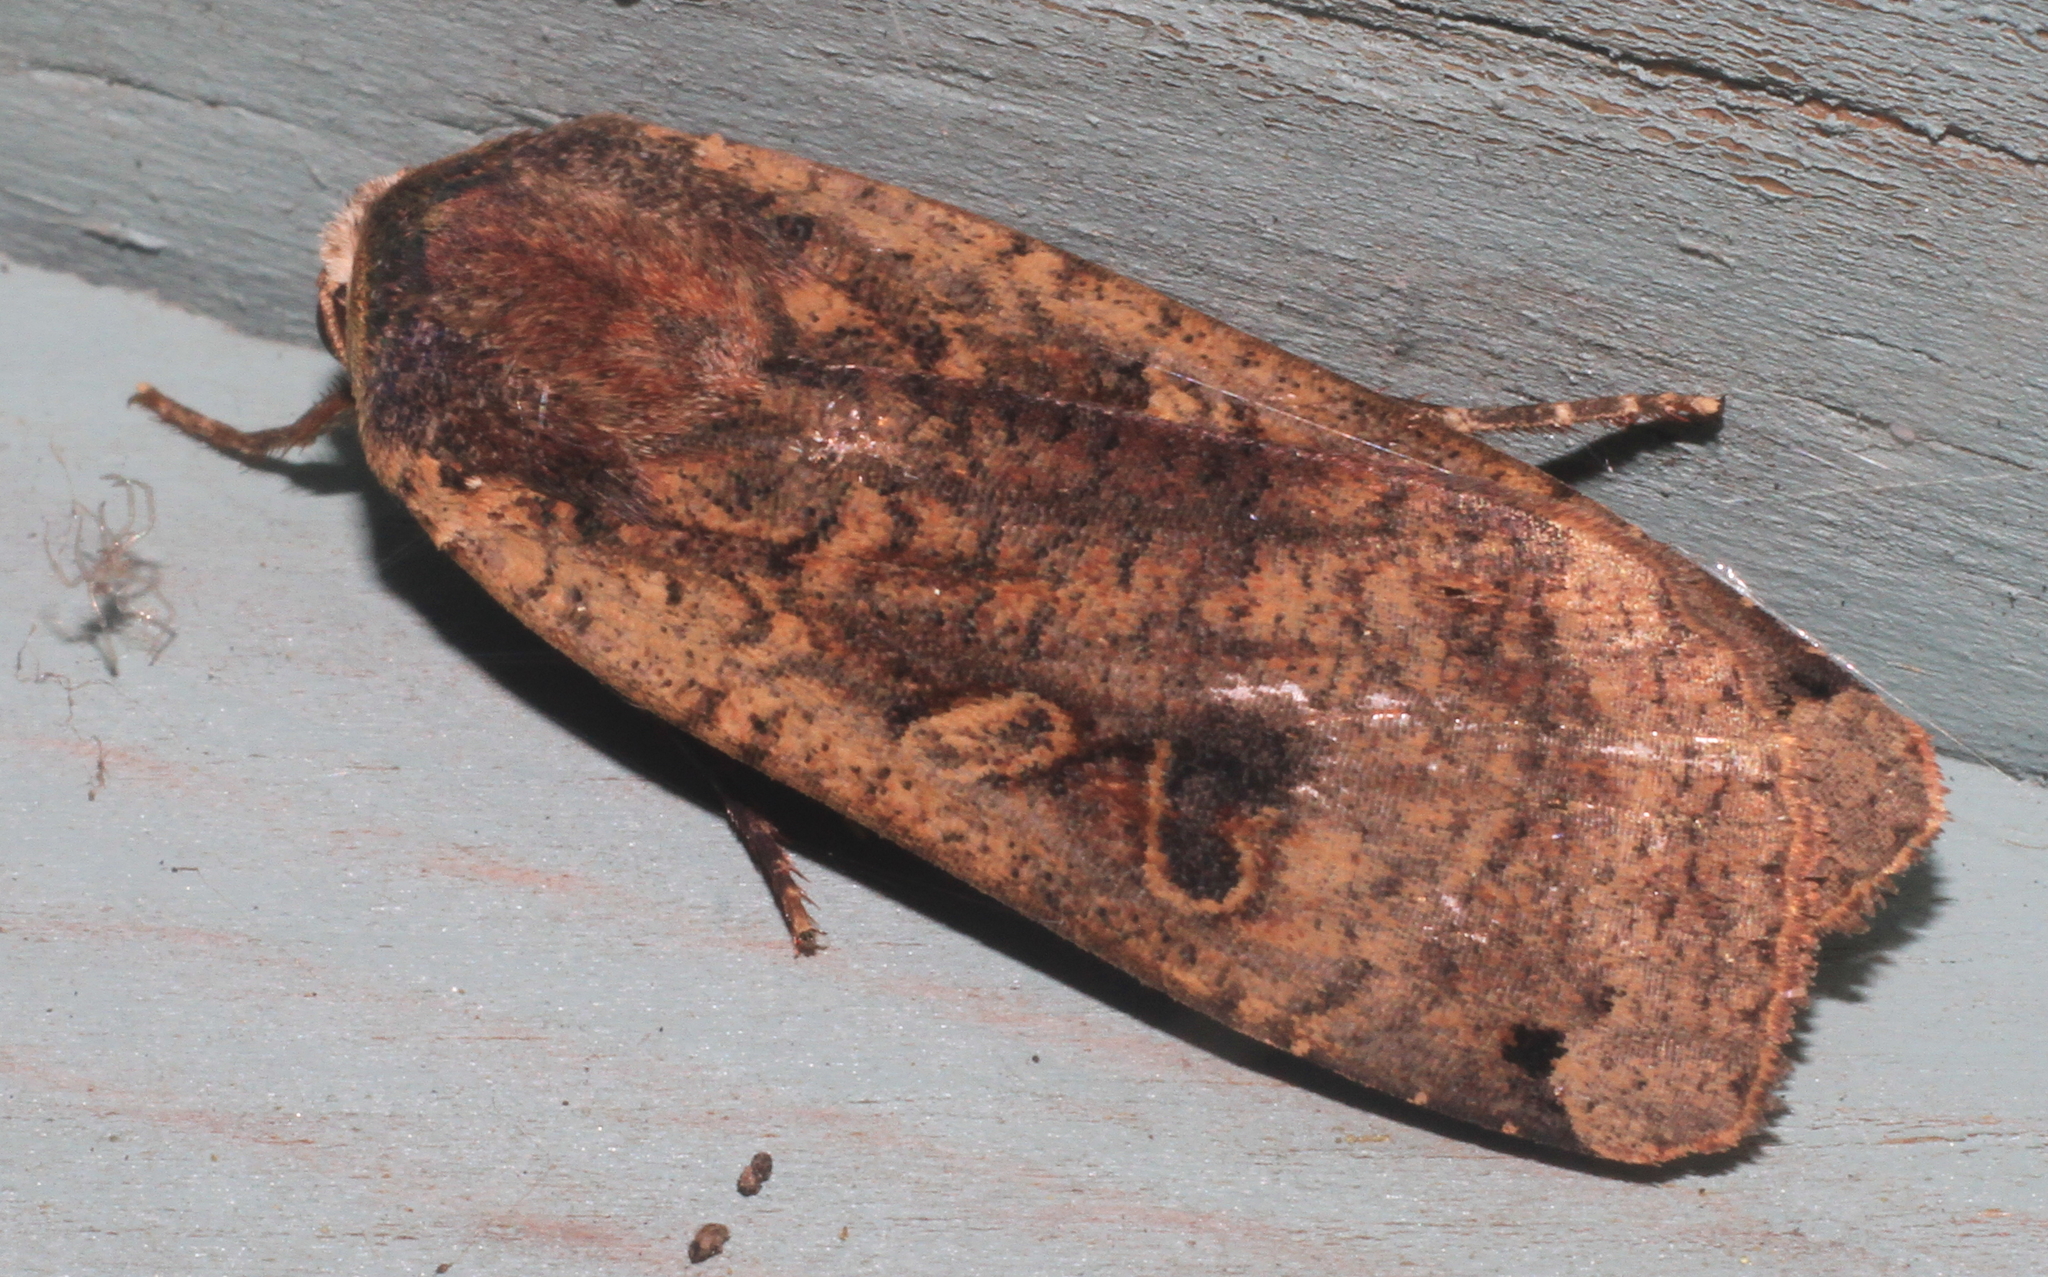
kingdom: Animalia
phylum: Arthropoda
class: Insecta
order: Lepidoptera
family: Noctuidae
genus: Noctua
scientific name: Noctua pronuba
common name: Large yellow underwing
